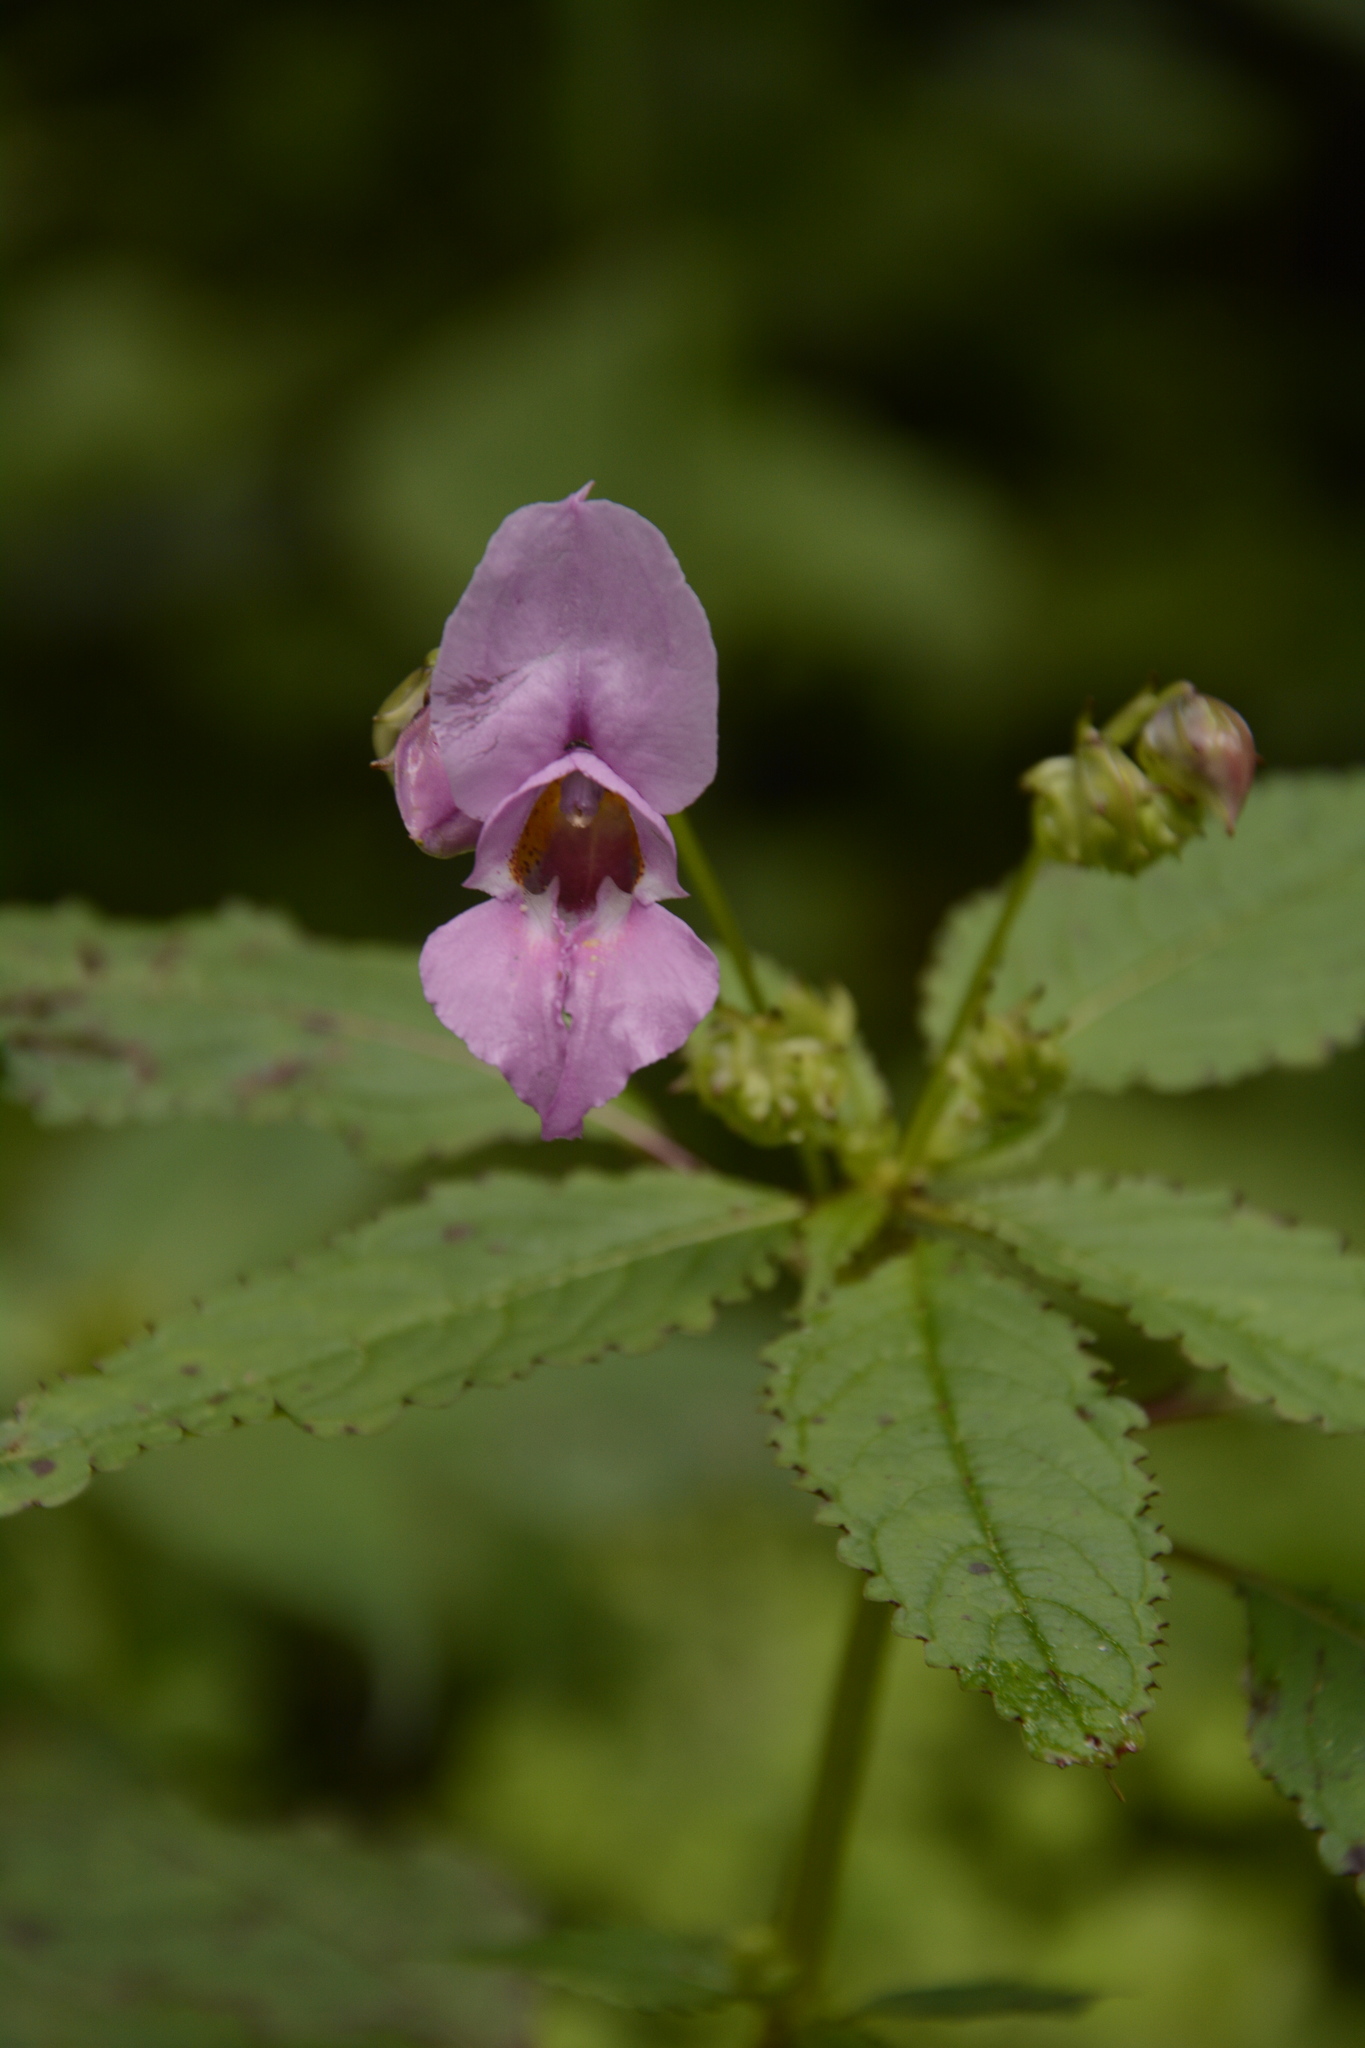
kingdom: Plantae
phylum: Tracheophyta
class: Magnoliopsida
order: Ericales
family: Balsaminaceae
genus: Impatiens
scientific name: Impatiens sulcata
